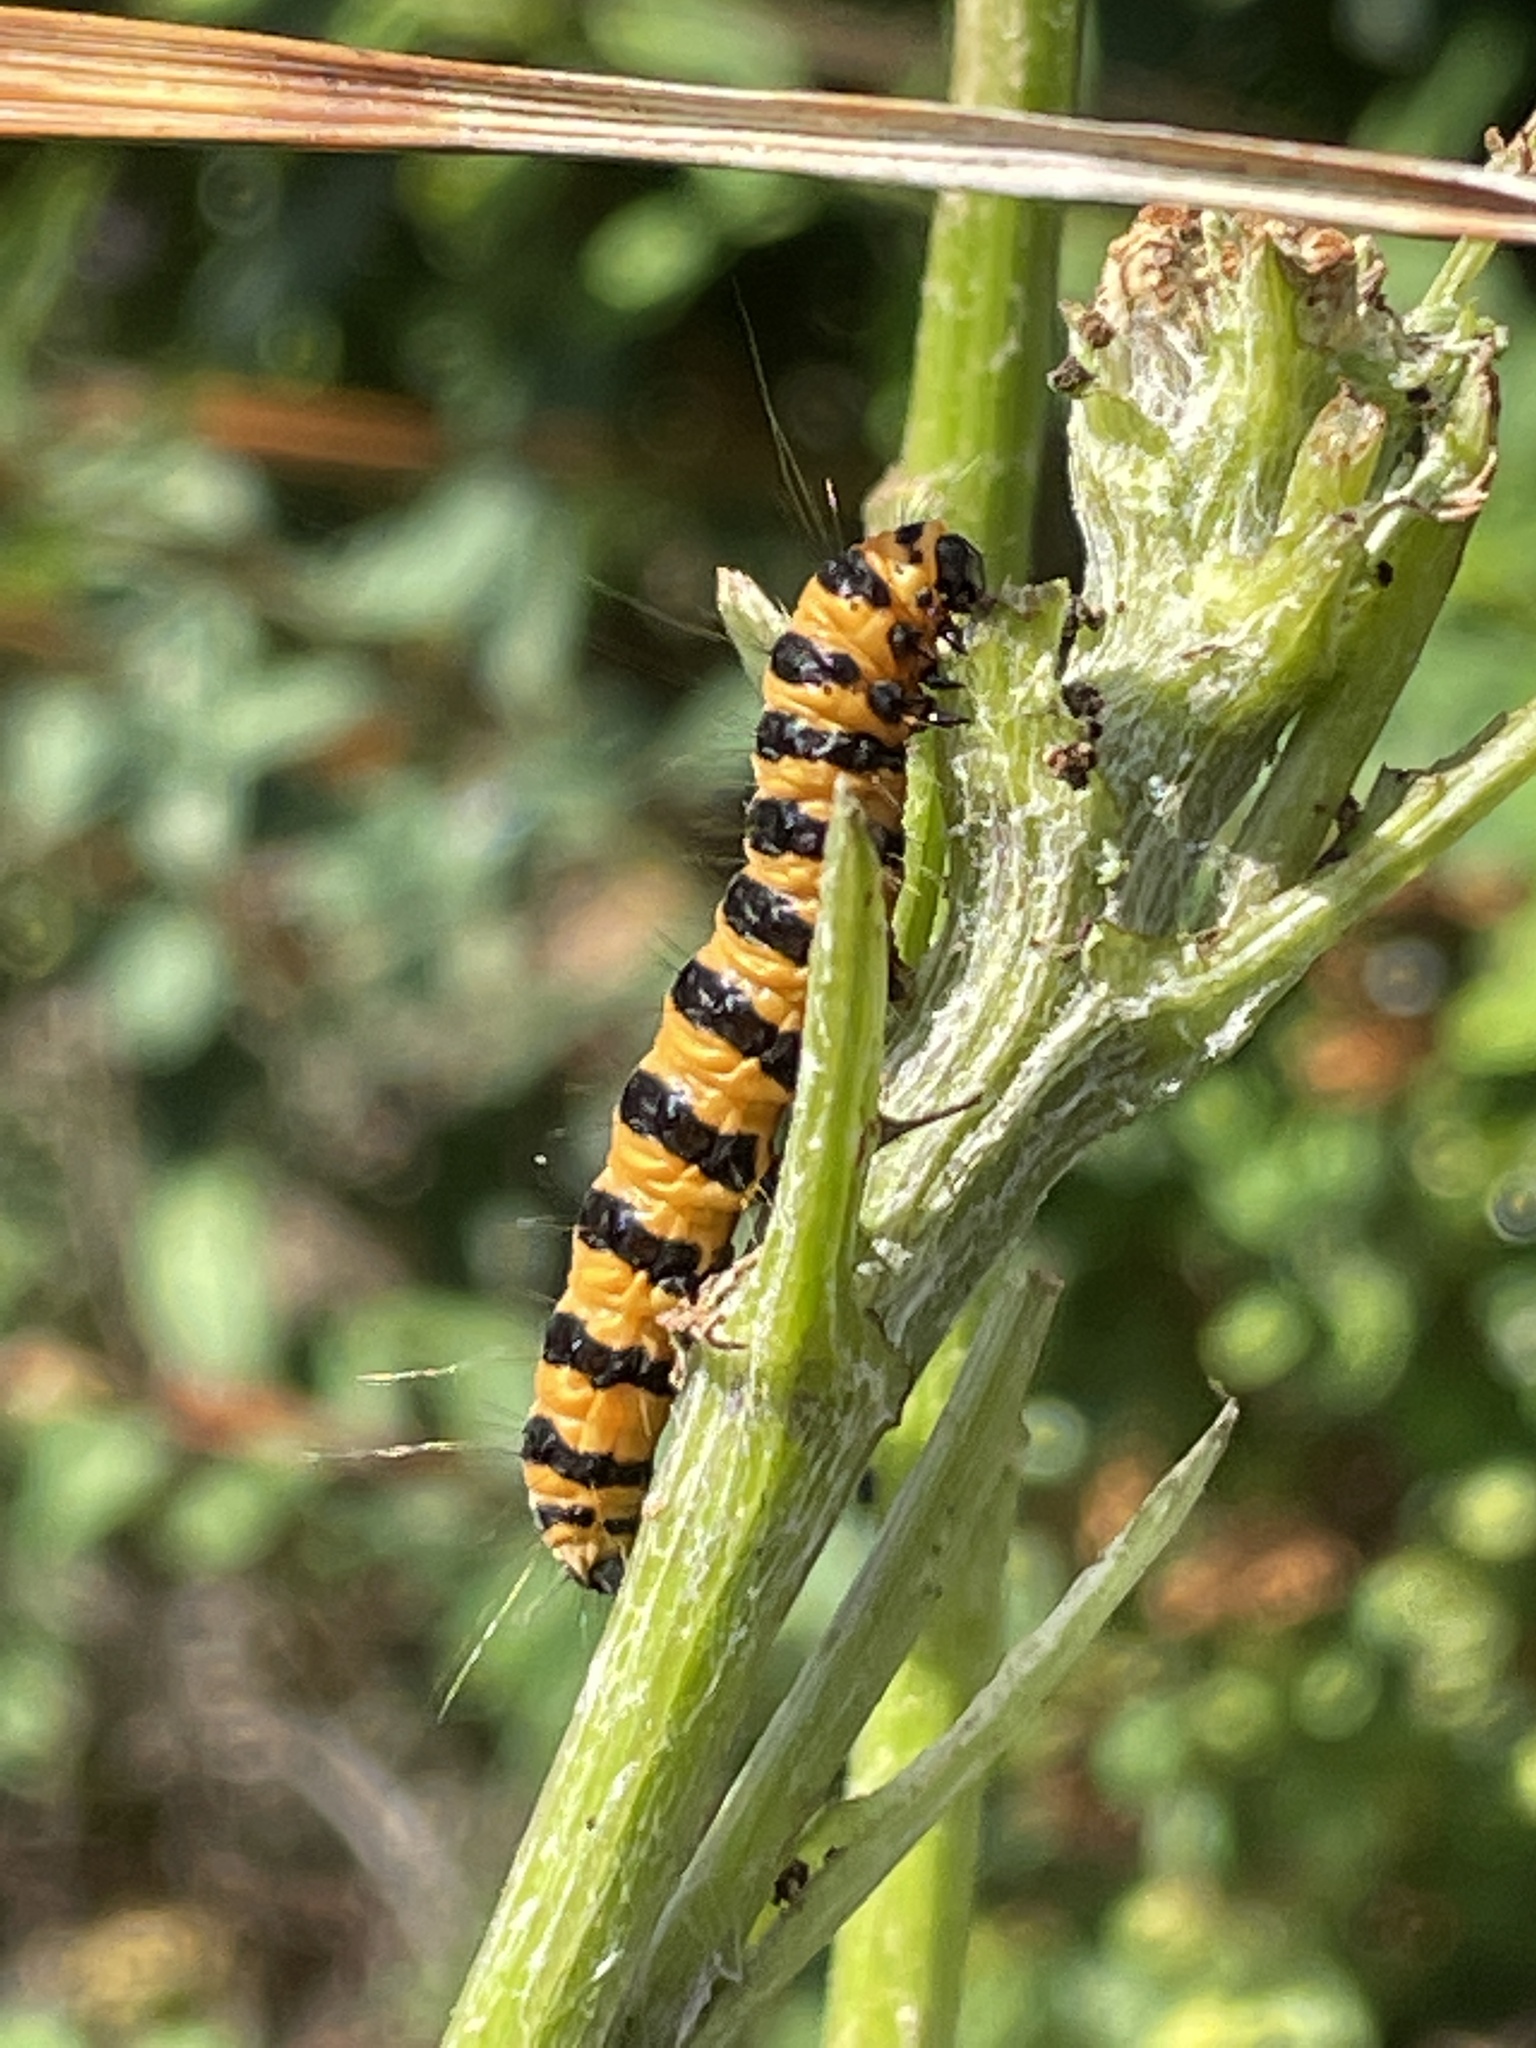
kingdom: Animalia
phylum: Arthropoda
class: Insecta
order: Lepidoptera
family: Erebidae
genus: Tyria
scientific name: Tyria jacobaeae
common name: Cinnabar
